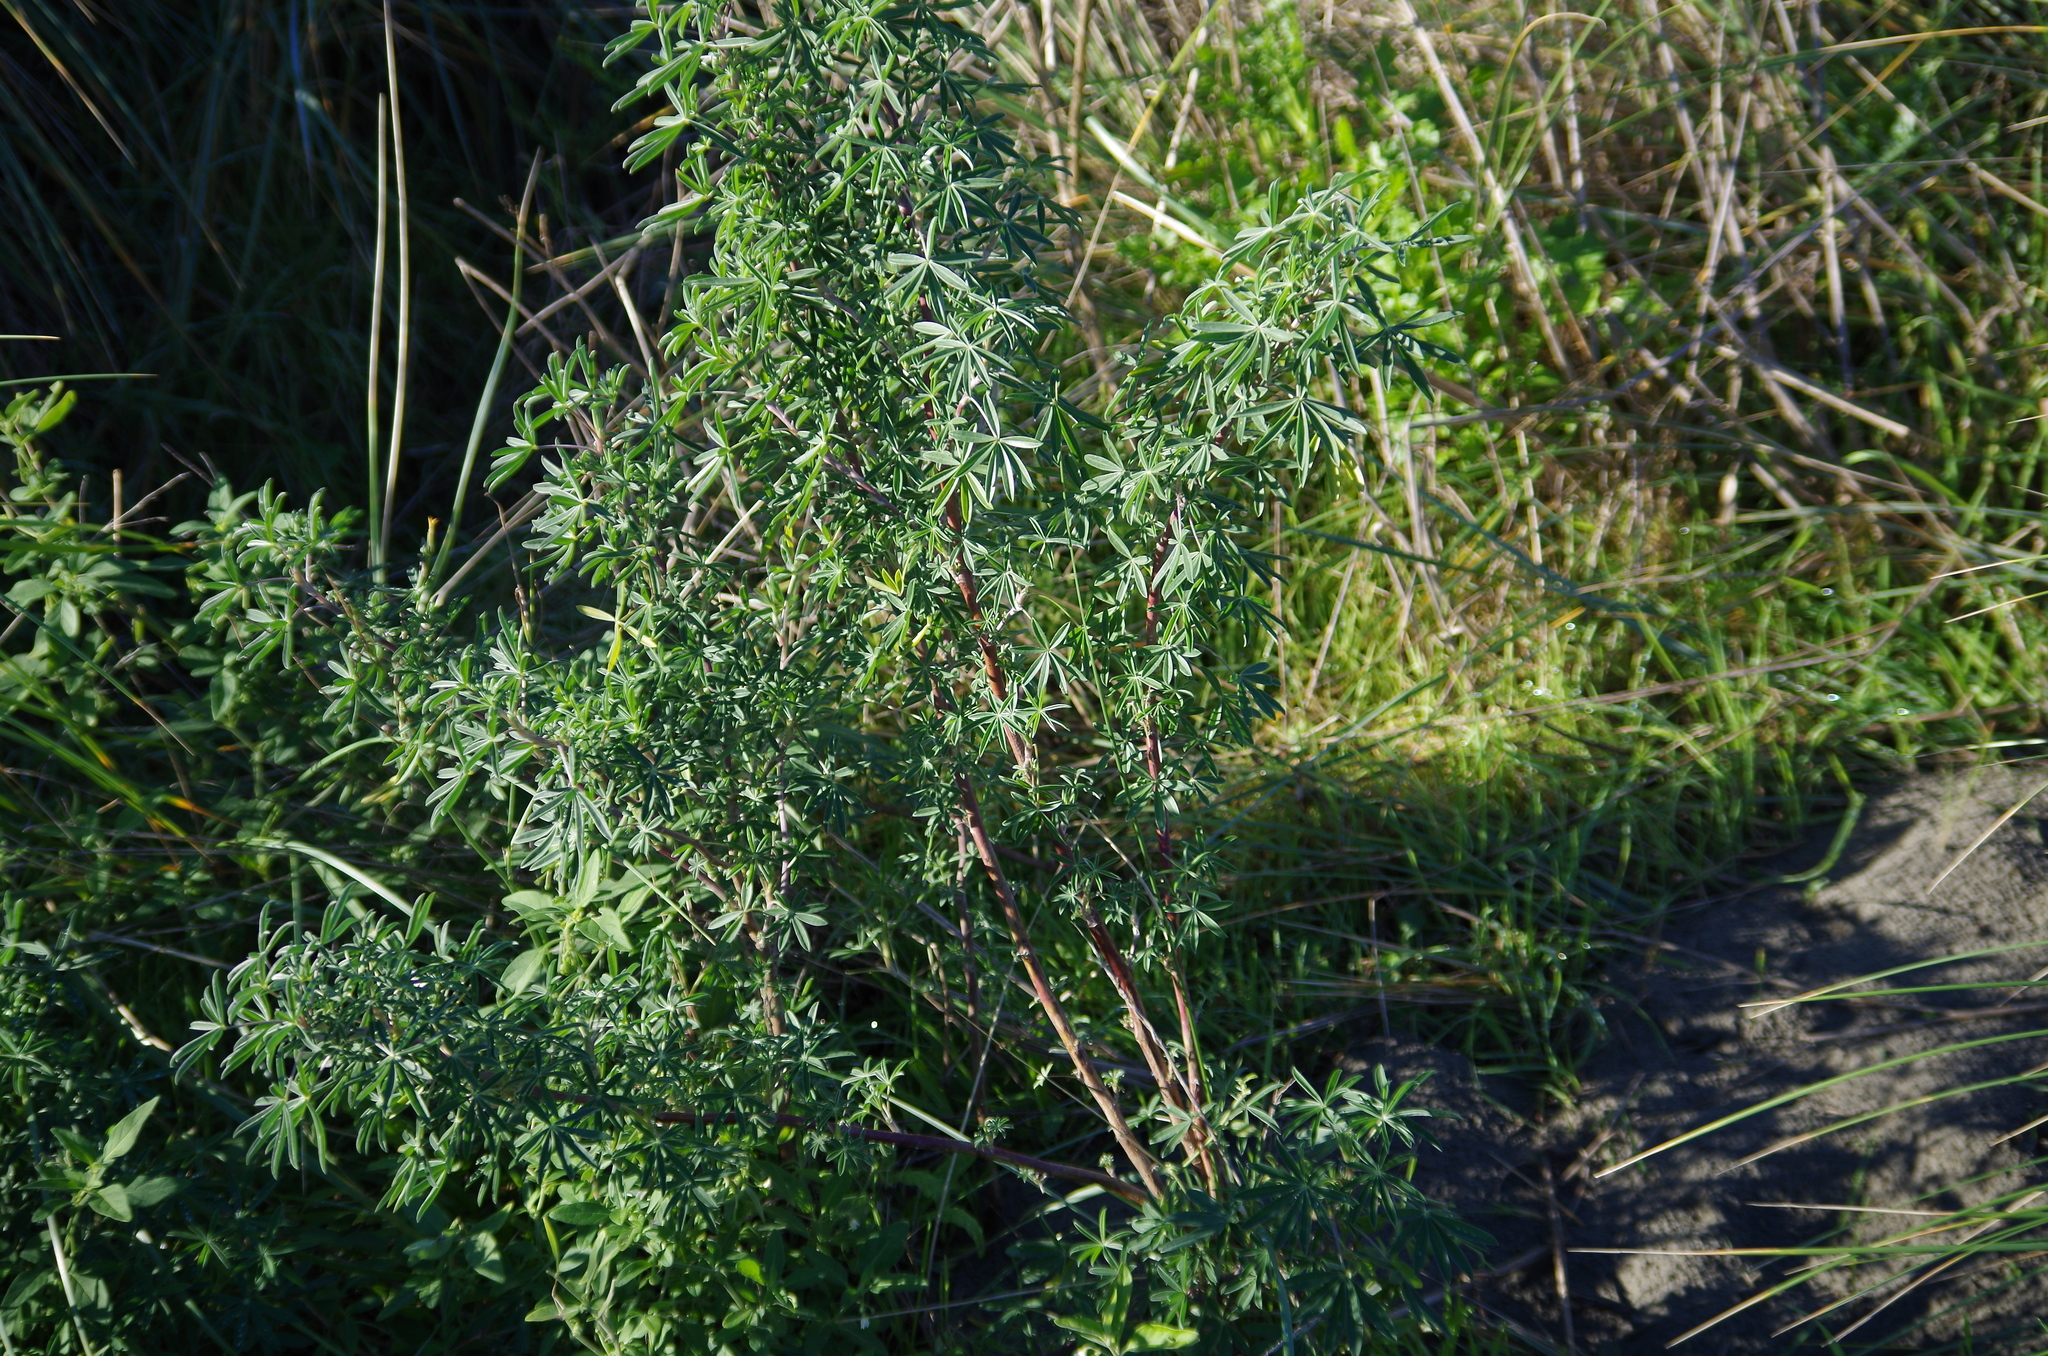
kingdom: Plantae
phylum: Tracheophyta
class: Magnoliopsida
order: Fabales
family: Fabaceae
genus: Lupinus
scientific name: Lupinus arboreus
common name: Yellow bush lupine
